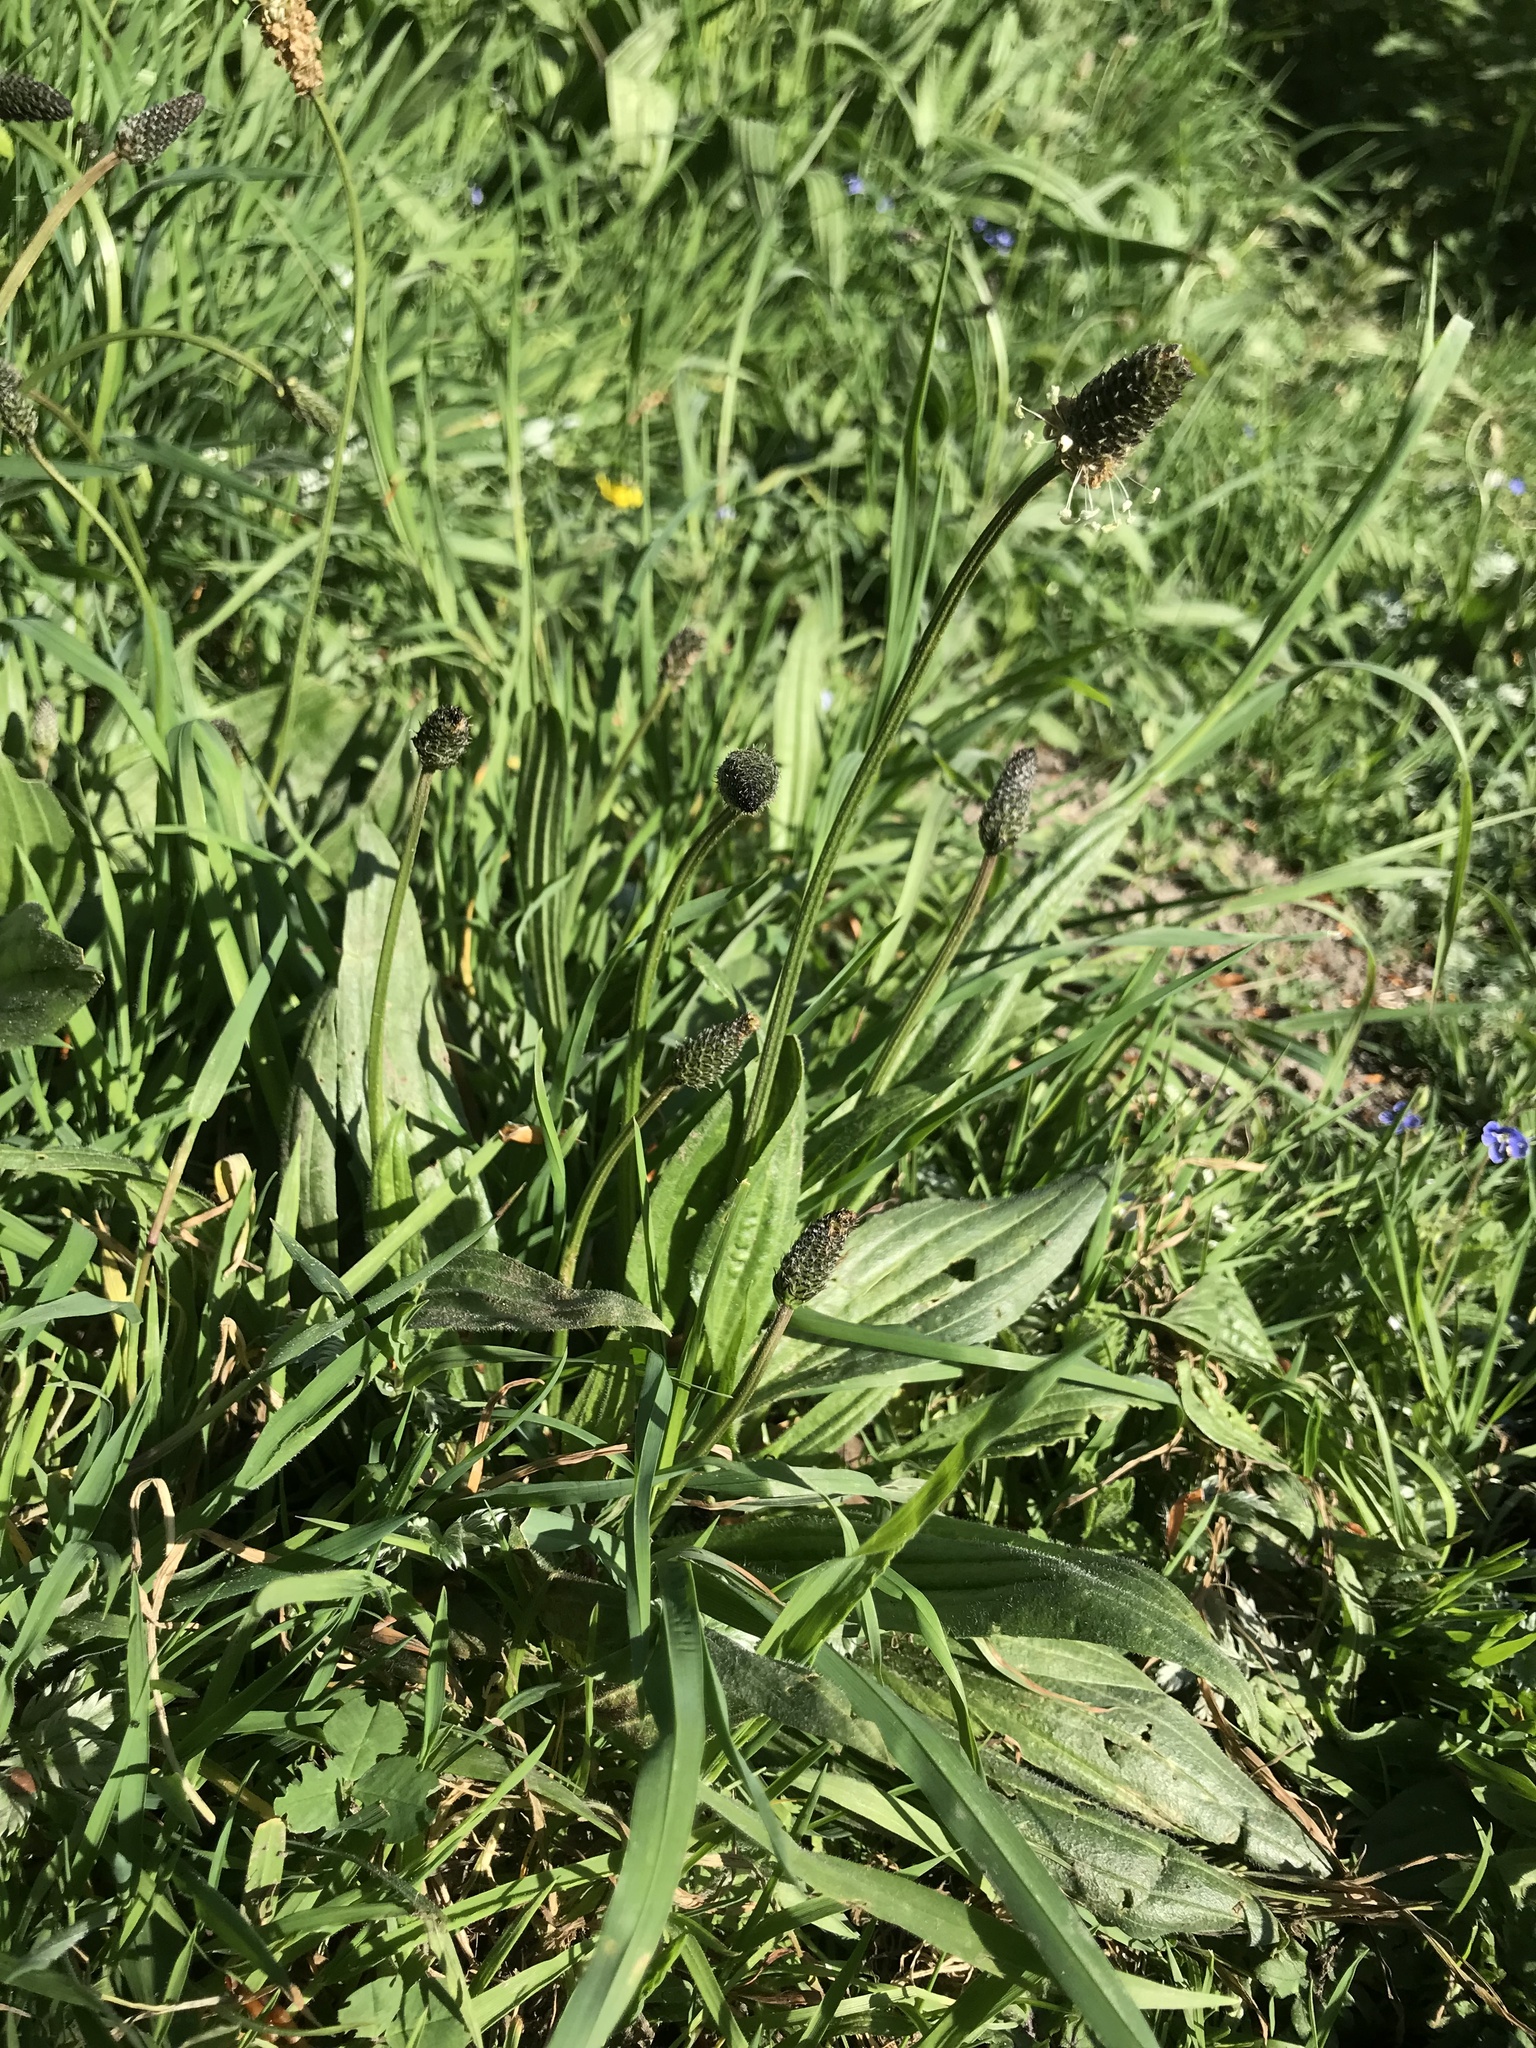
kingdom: Plantae
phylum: Tracheophyta
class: Magnoliopsida
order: Lamiales
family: Plantaginaceae
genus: Plantago
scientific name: Plantago lanceolata
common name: Ribwort plantain
